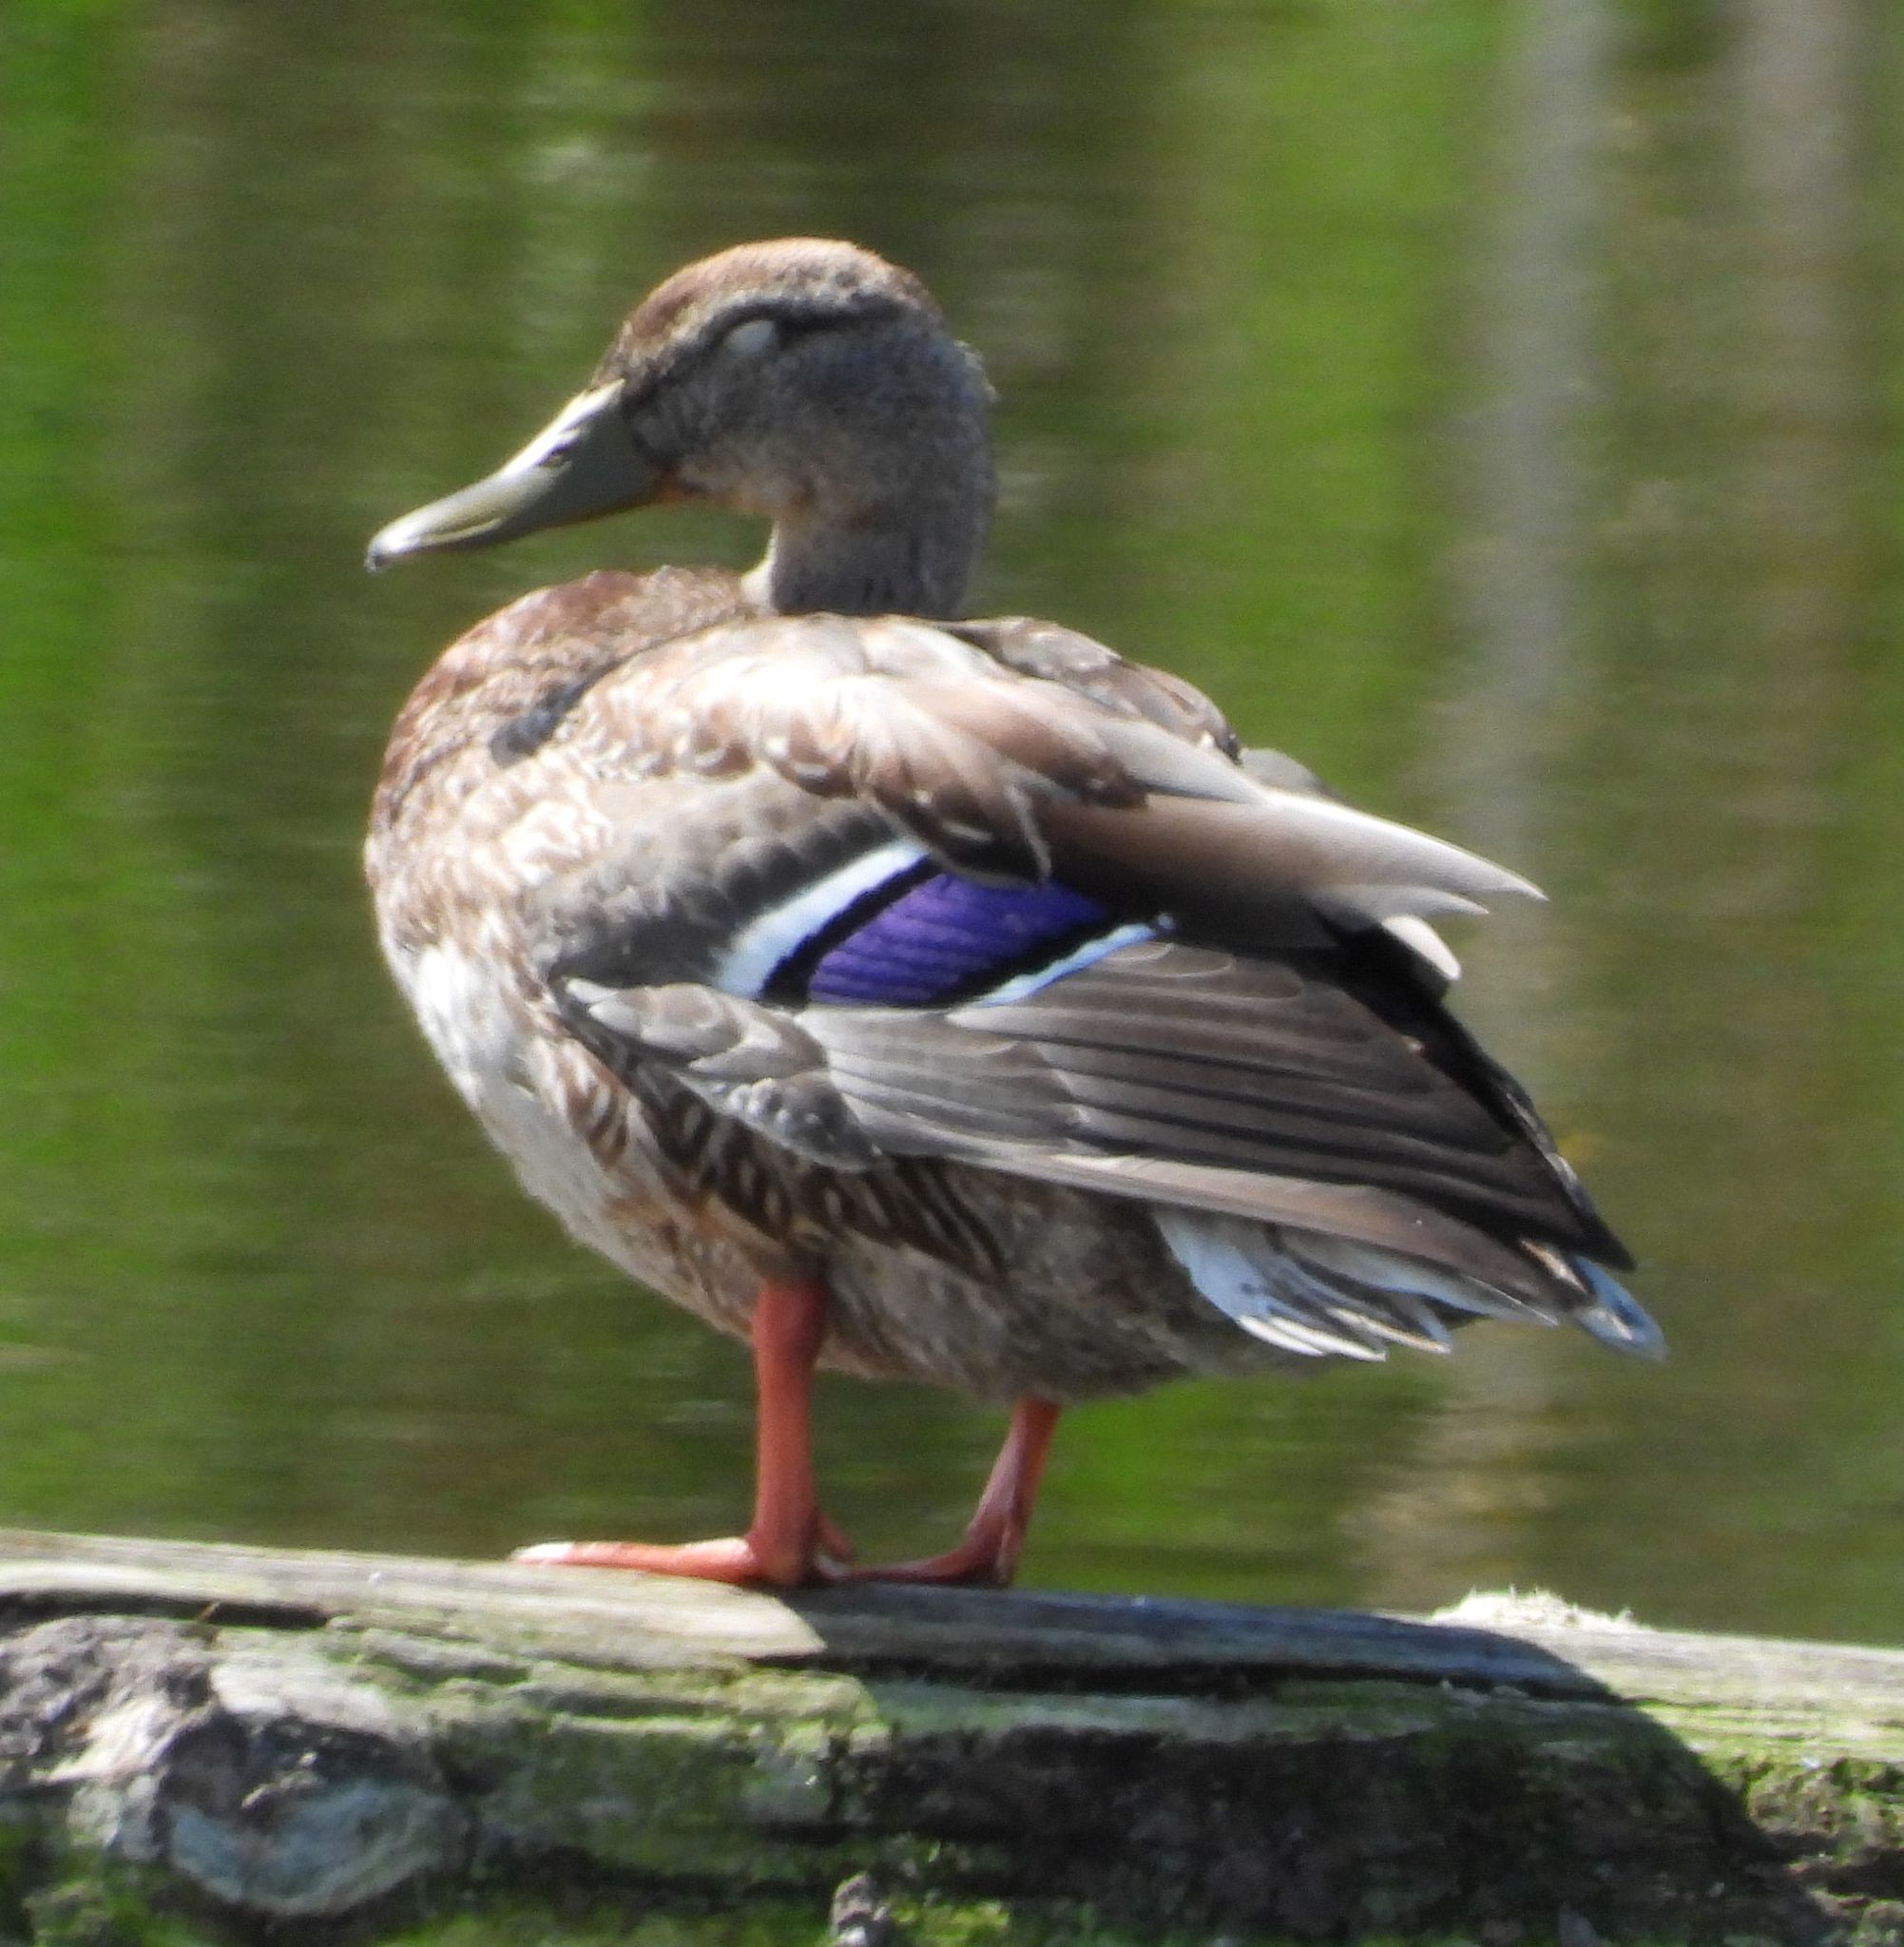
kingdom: Animalia
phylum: Chordata
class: Aves
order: Anseriformes
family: Anatidae
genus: Anas
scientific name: Anas platyrhynchos
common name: Mallard
